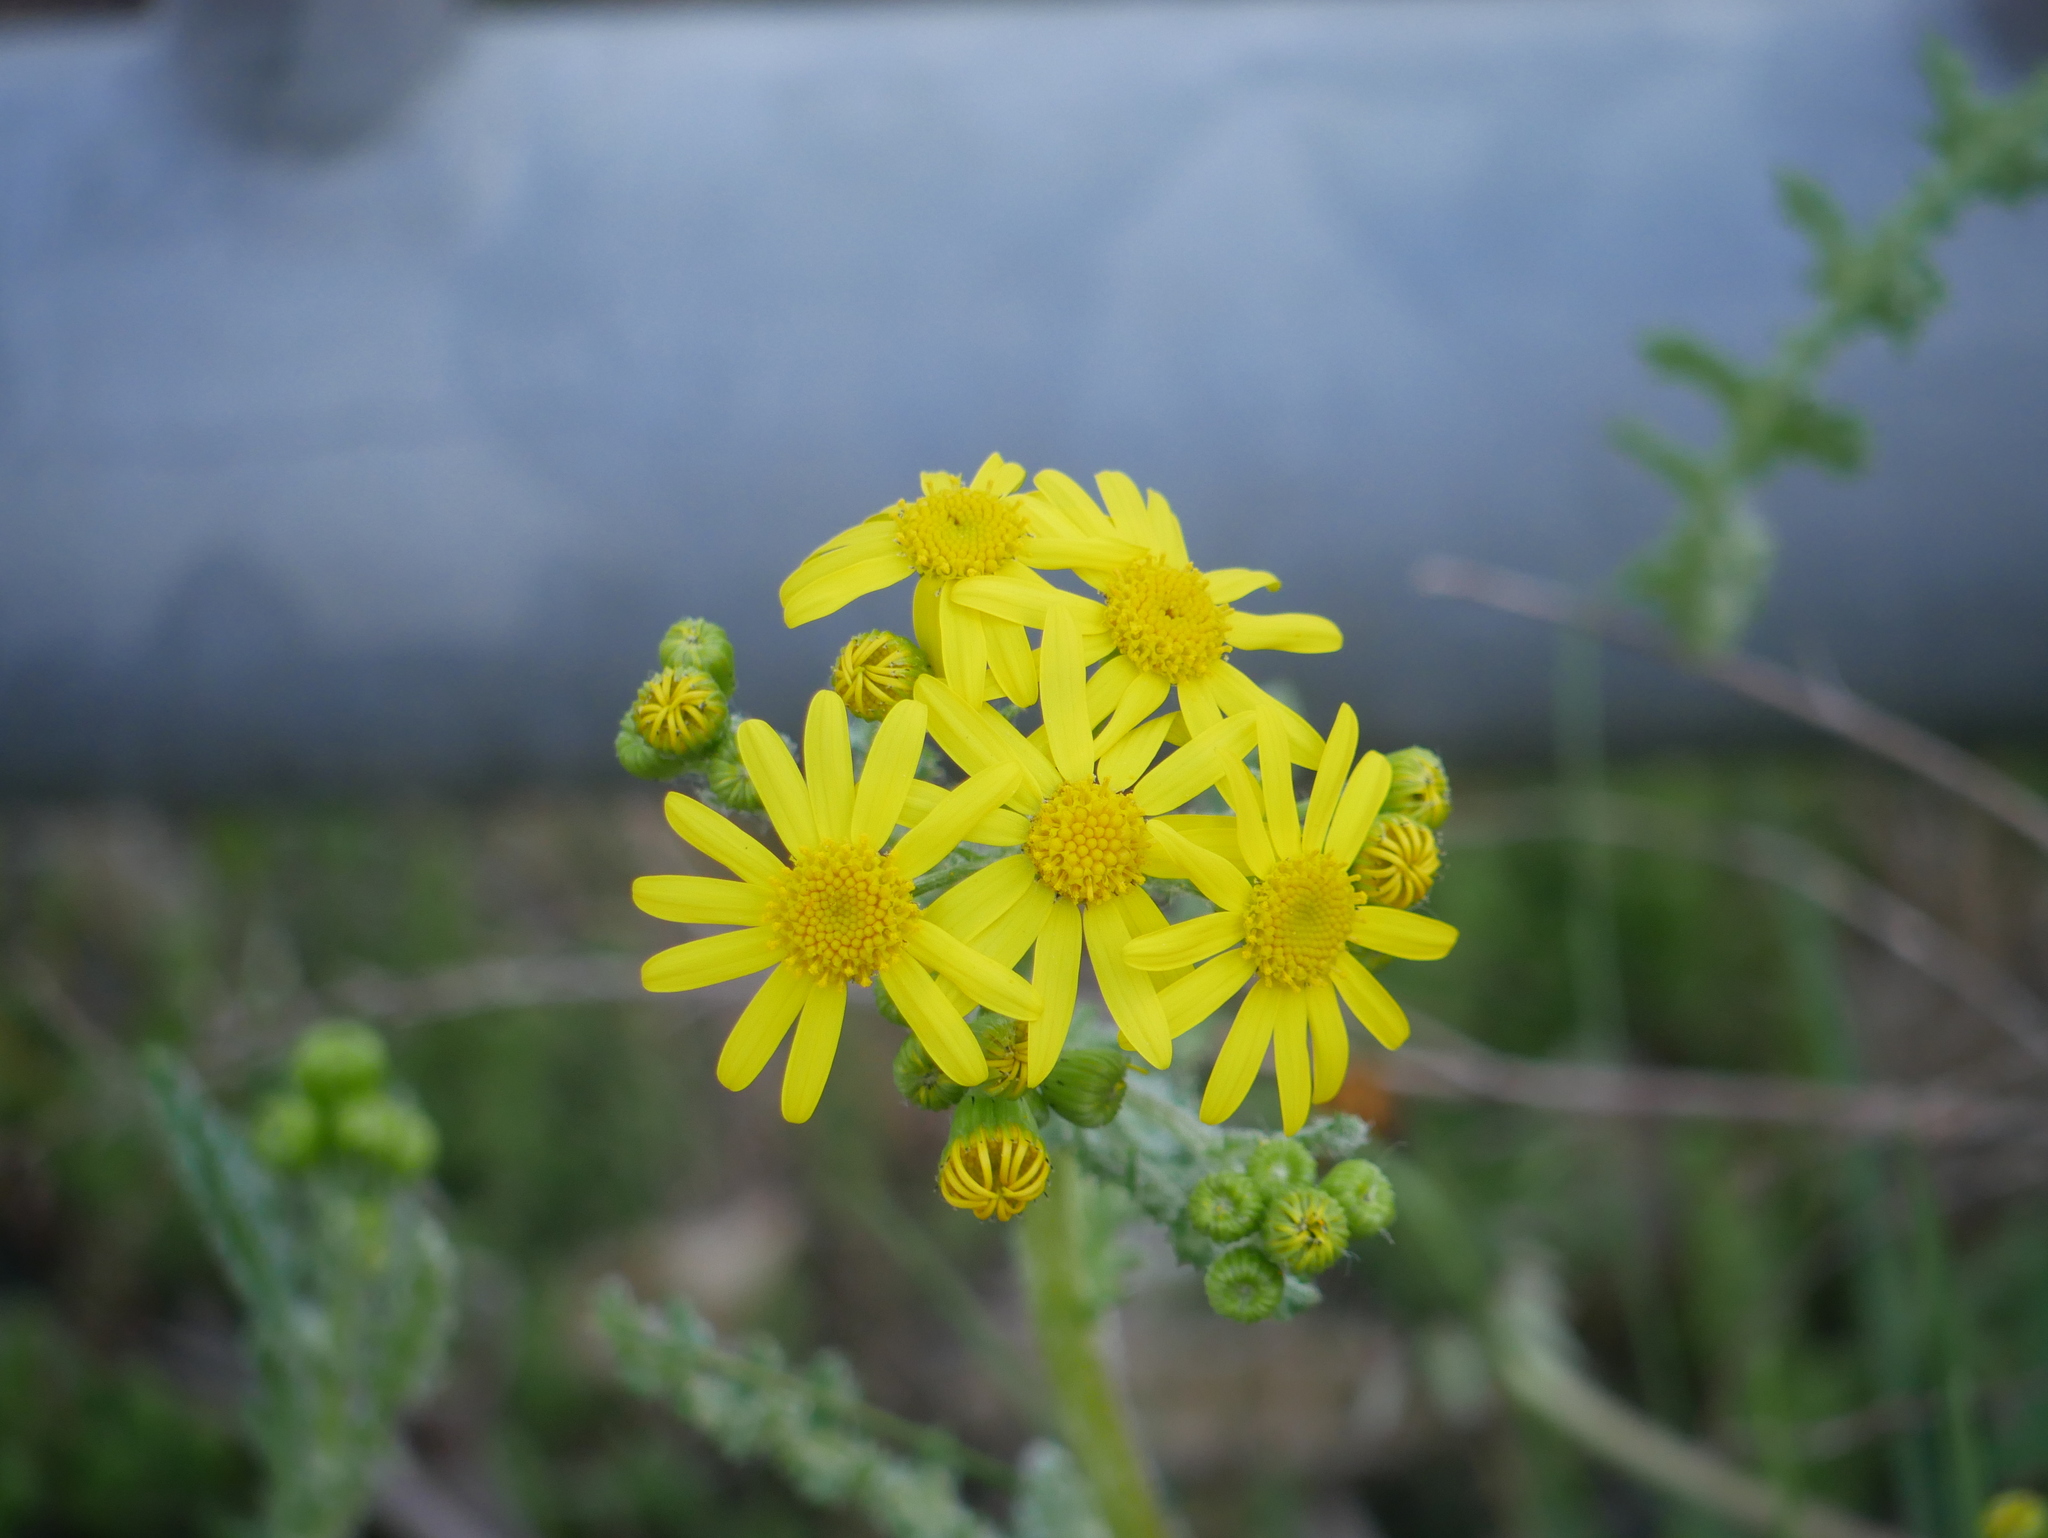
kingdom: Plantae
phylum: Tracheophyta
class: Magnoliopsida
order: Asterales
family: Asteraceae
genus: Senecio
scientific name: Senecio vernalis
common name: Eastern groundsel
